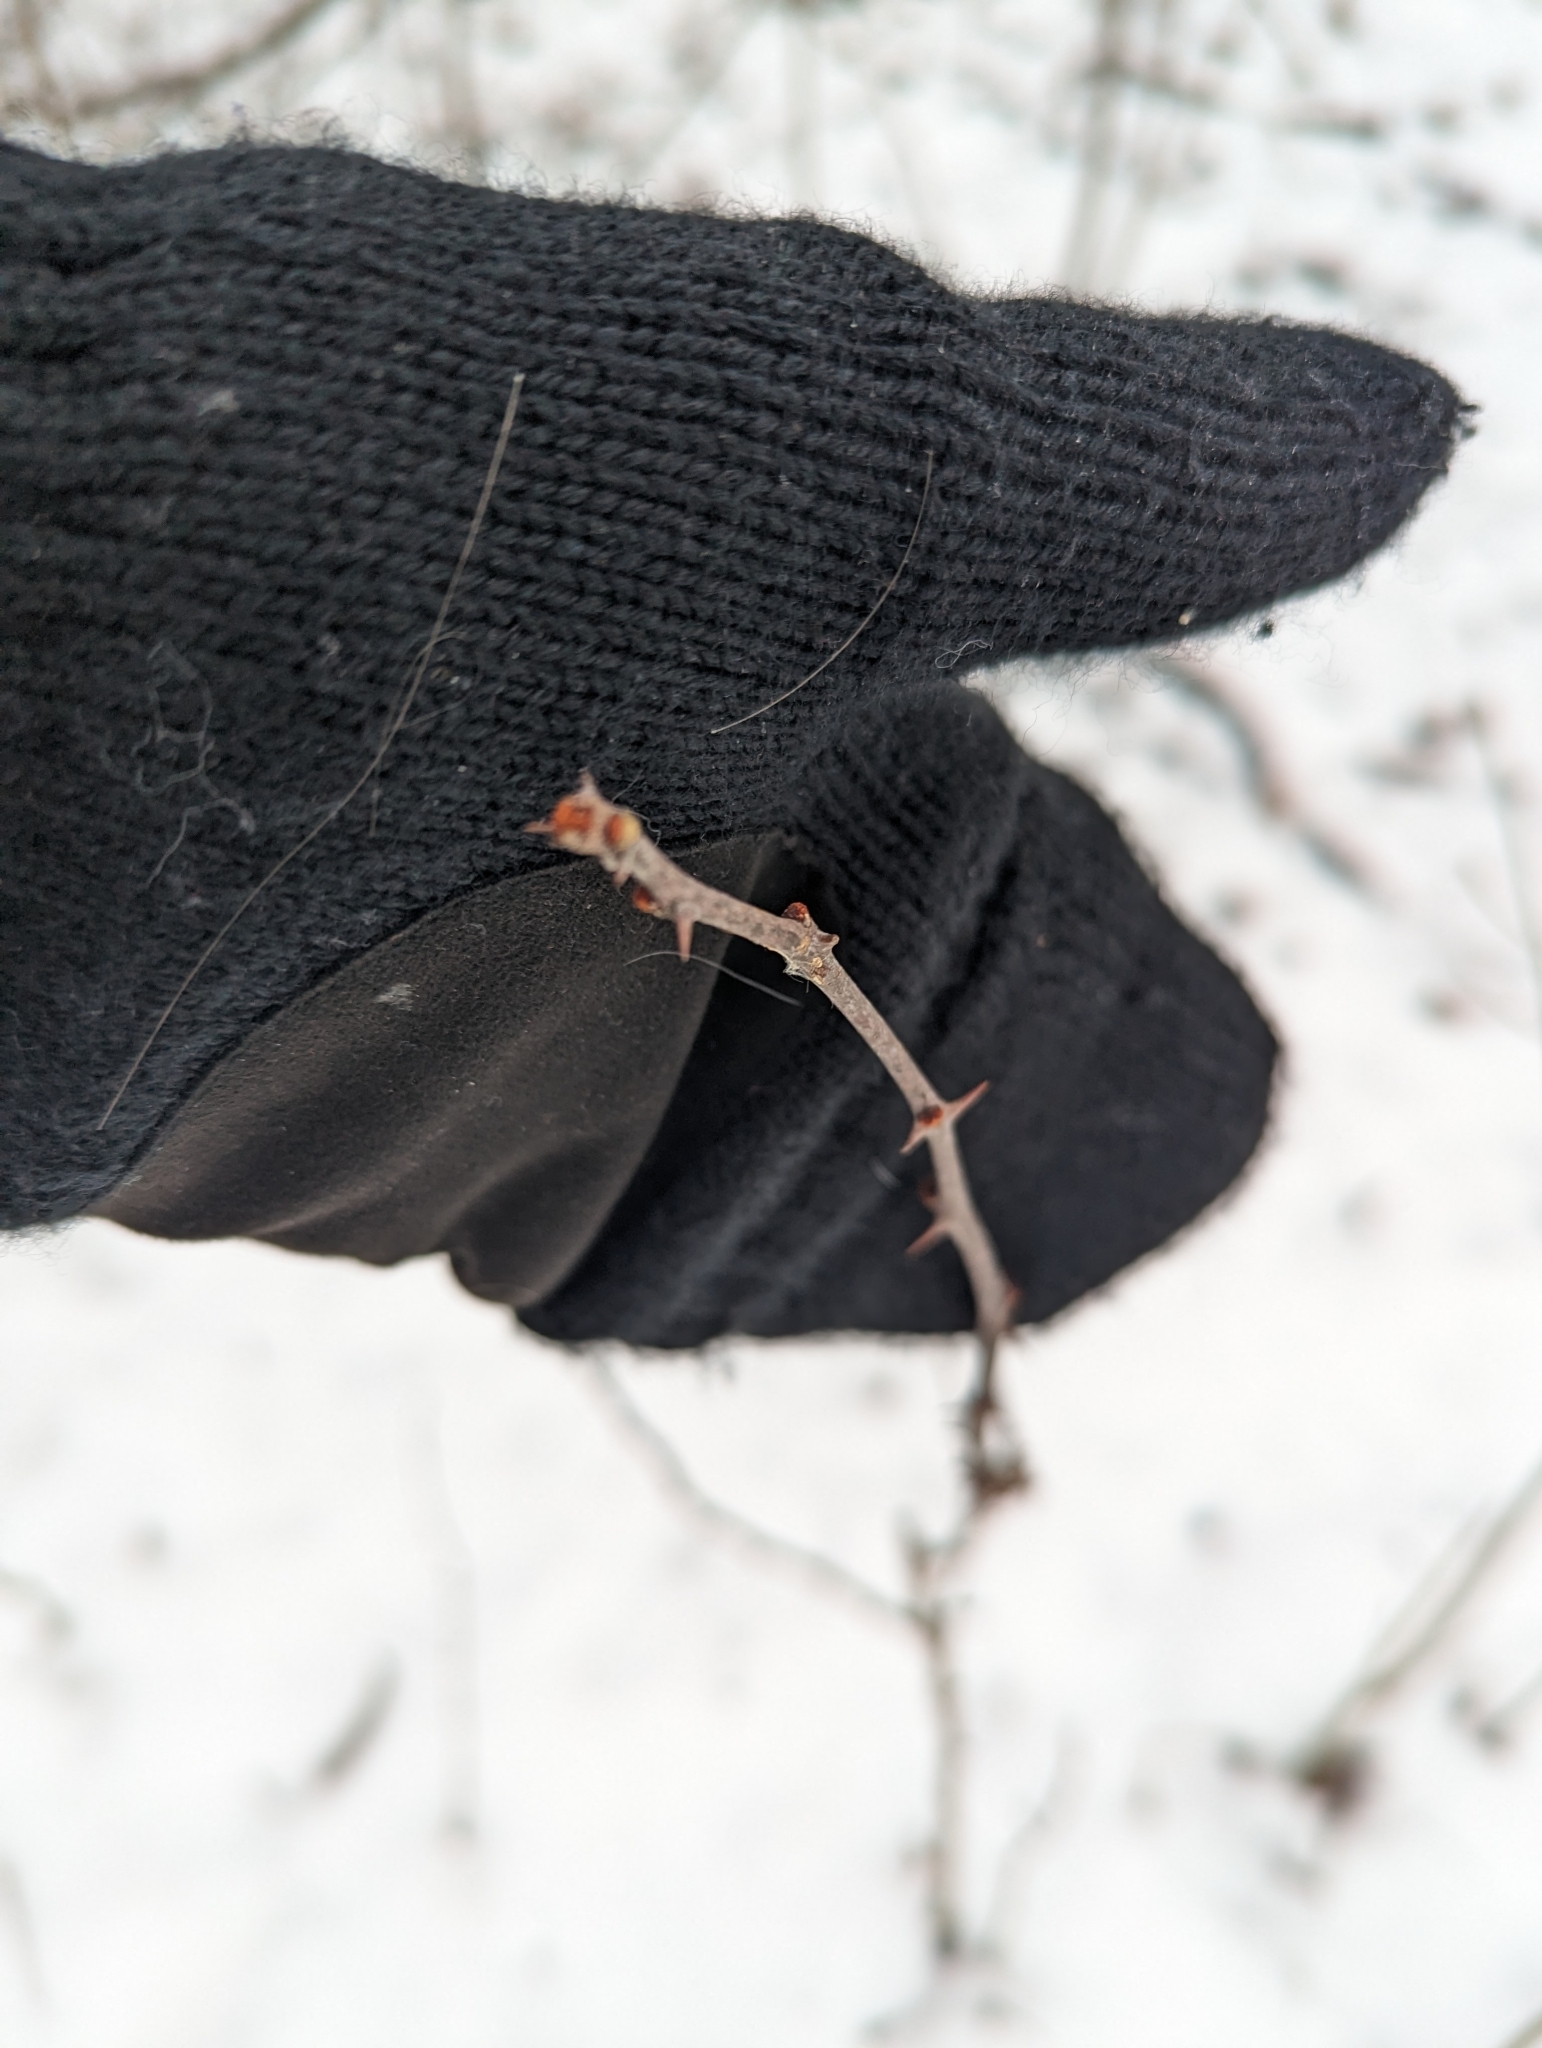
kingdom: Plantae
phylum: Tracheophyta
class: Magnoliopsida
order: Sapindales
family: Rutaceae
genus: Zanthoxylum
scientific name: Zanthoxylum americanum
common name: Northern prickly-ash
